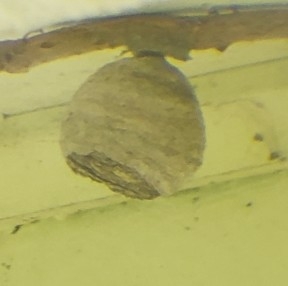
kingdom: Animalia
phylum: Arthropoda
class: Insecta
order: Hymenoptera
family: Vespidae
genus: Dolichovespula
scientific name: Dolichovespula arenaria
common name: Aerial yellowjacket
